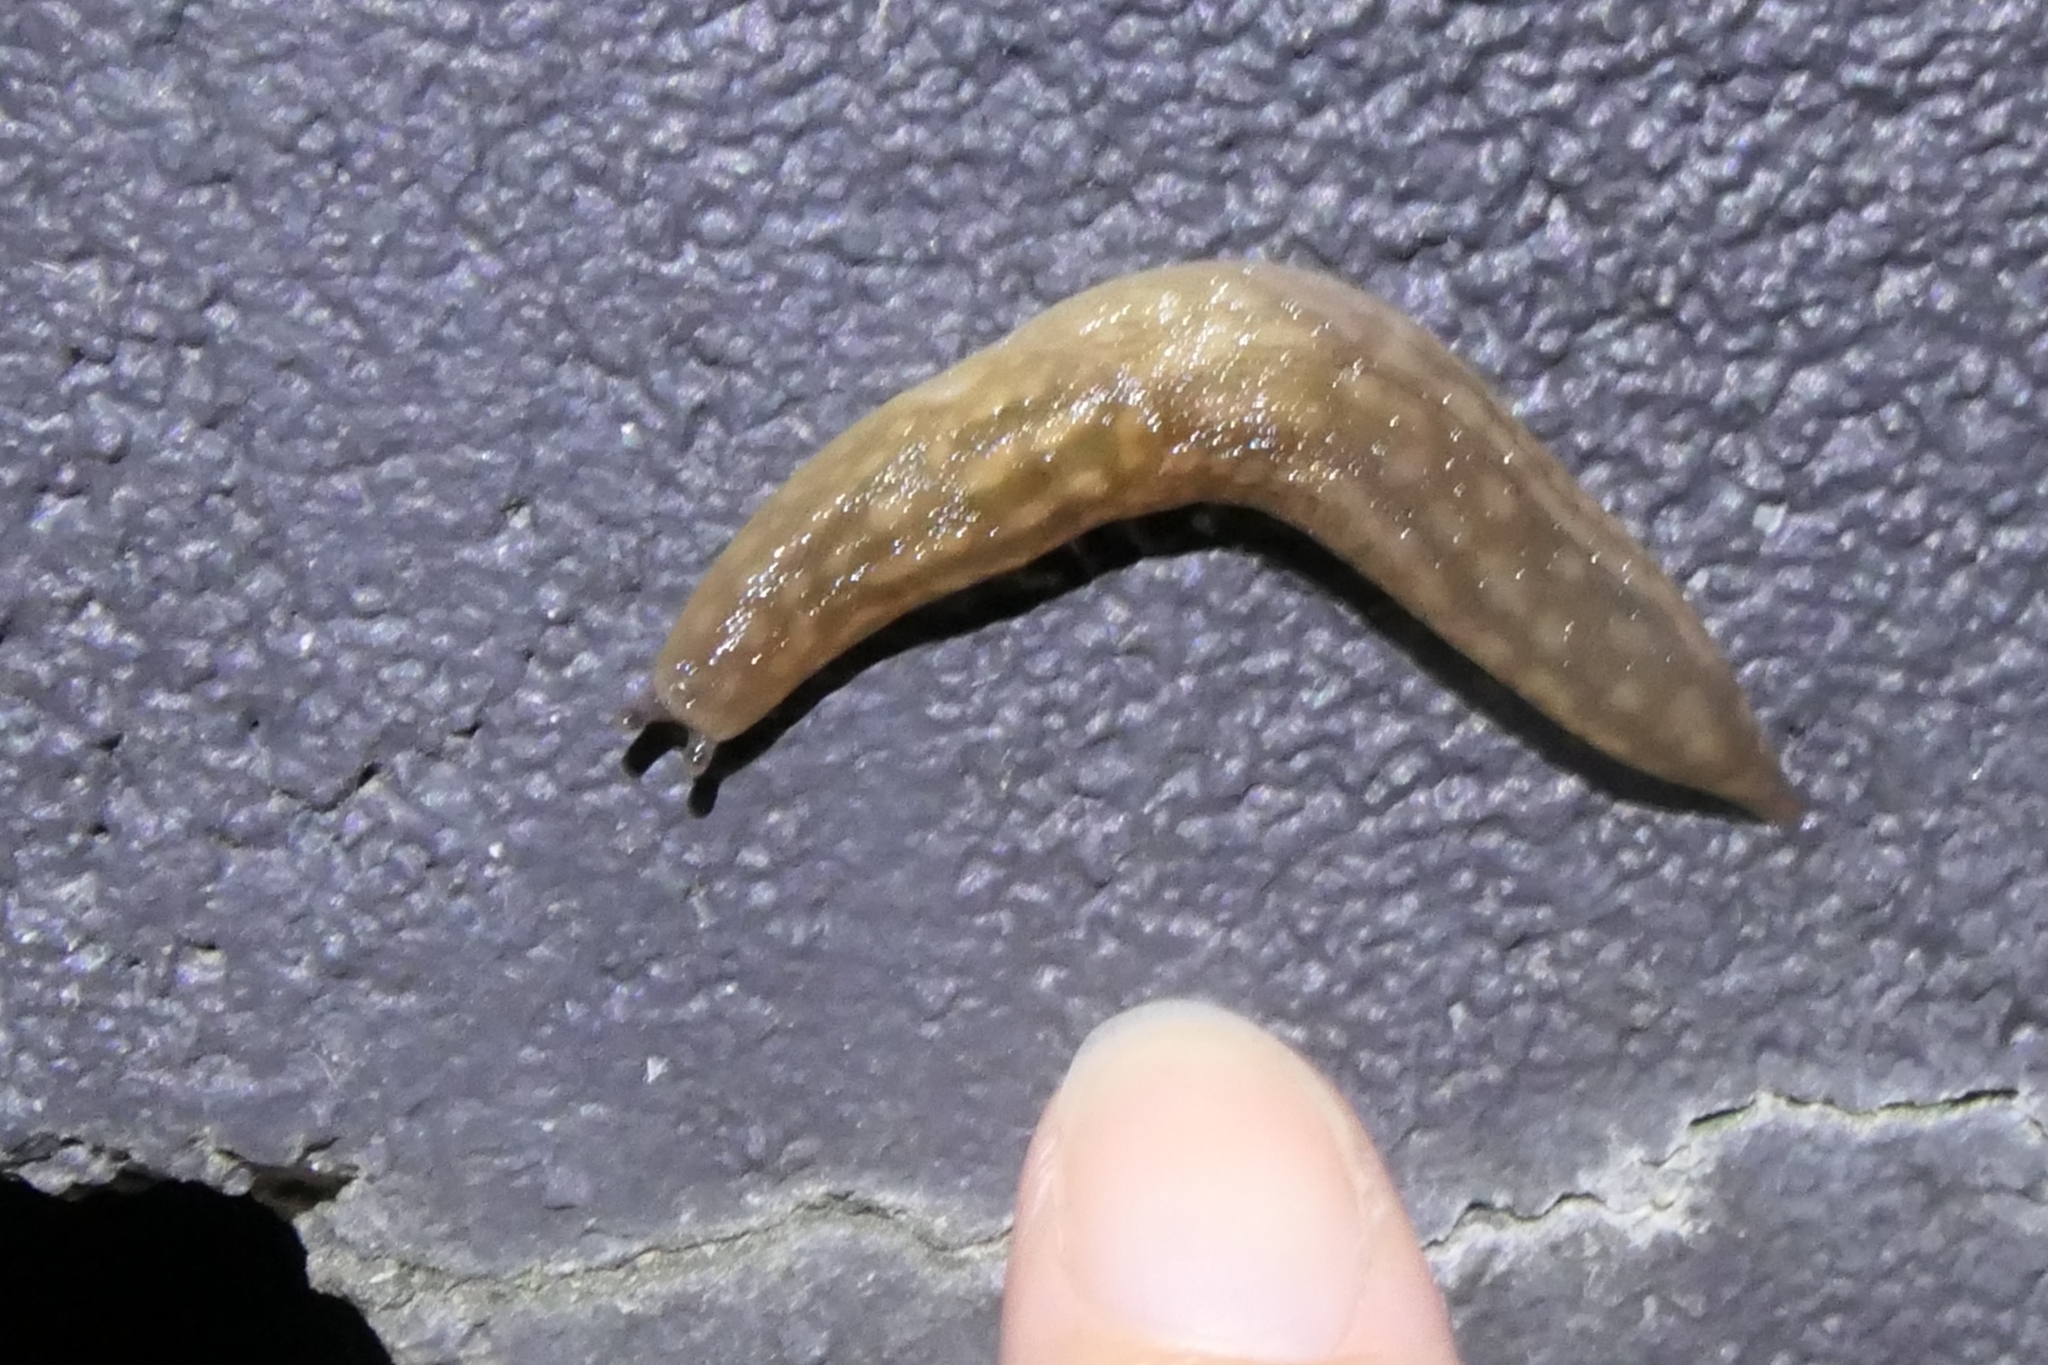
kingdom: Animalia
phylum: Mollusca
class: Gastropoda
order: Stylommatophora
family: Limacidae
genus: Limacus
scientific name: Limacus flavus
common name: Yellow gardenslug
